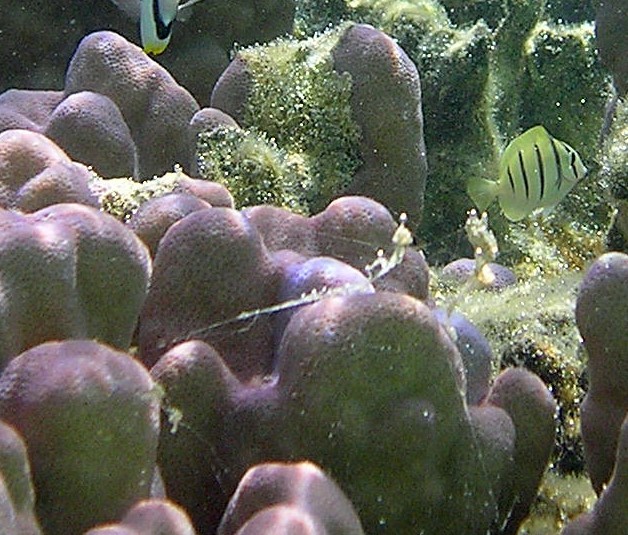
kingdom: Animalia
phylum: Chordata
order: Perciformes
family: Acanthuridae
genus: Acanthurus
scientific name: Acanthurus triostegus
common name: Convict surgeonfish
